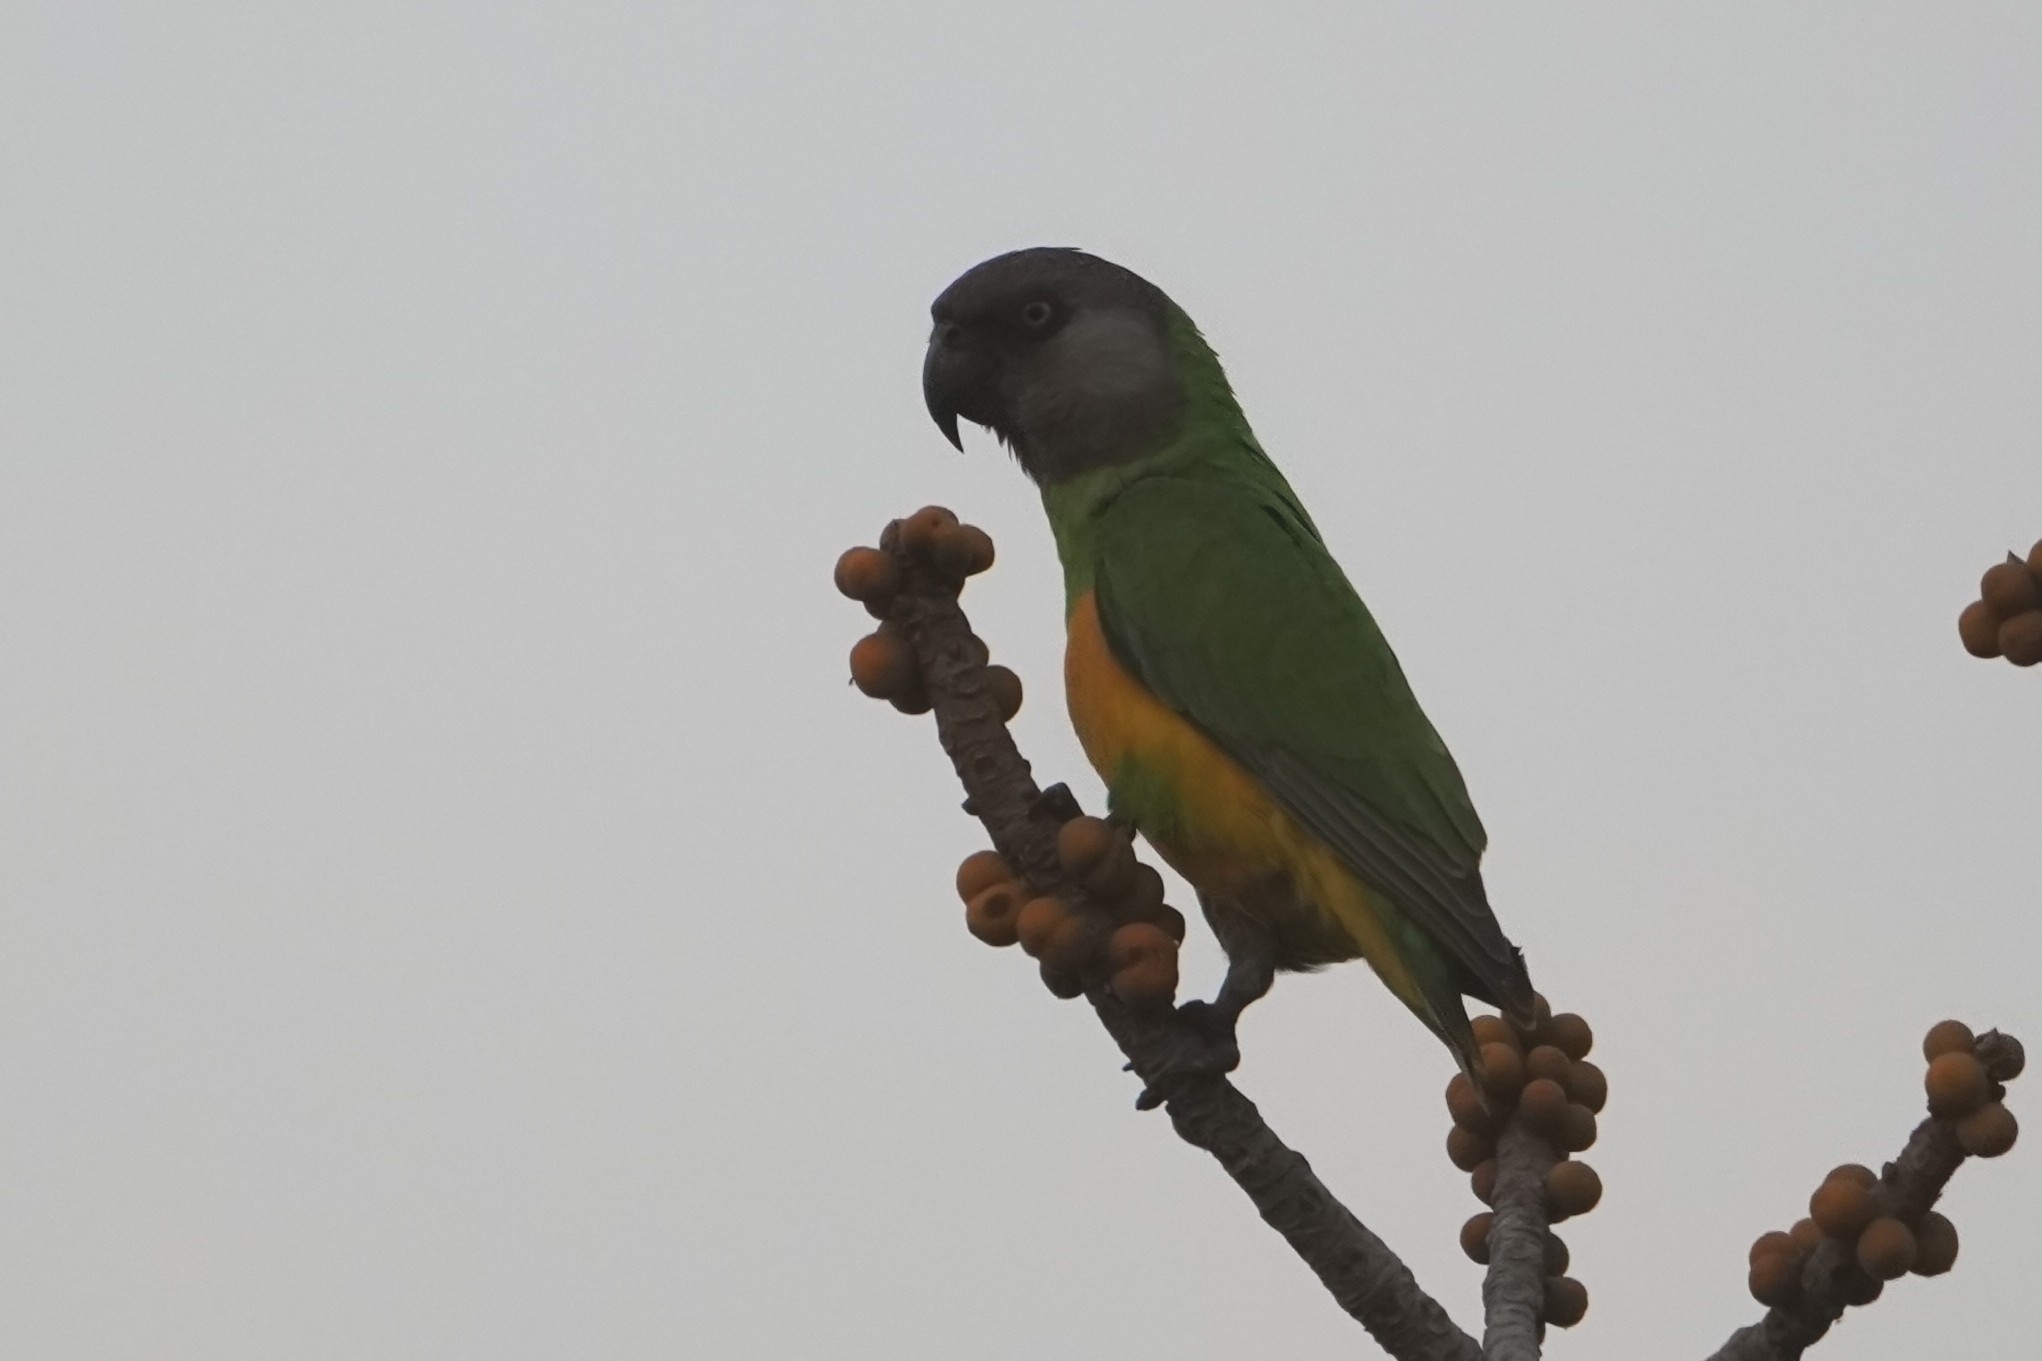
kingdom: Animalia
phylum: Chordata
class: Aves
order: Psittaciformes
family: Psittacidae
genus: Poicephalus
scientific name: Poicephalus senegalus
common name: Senegal parrot
